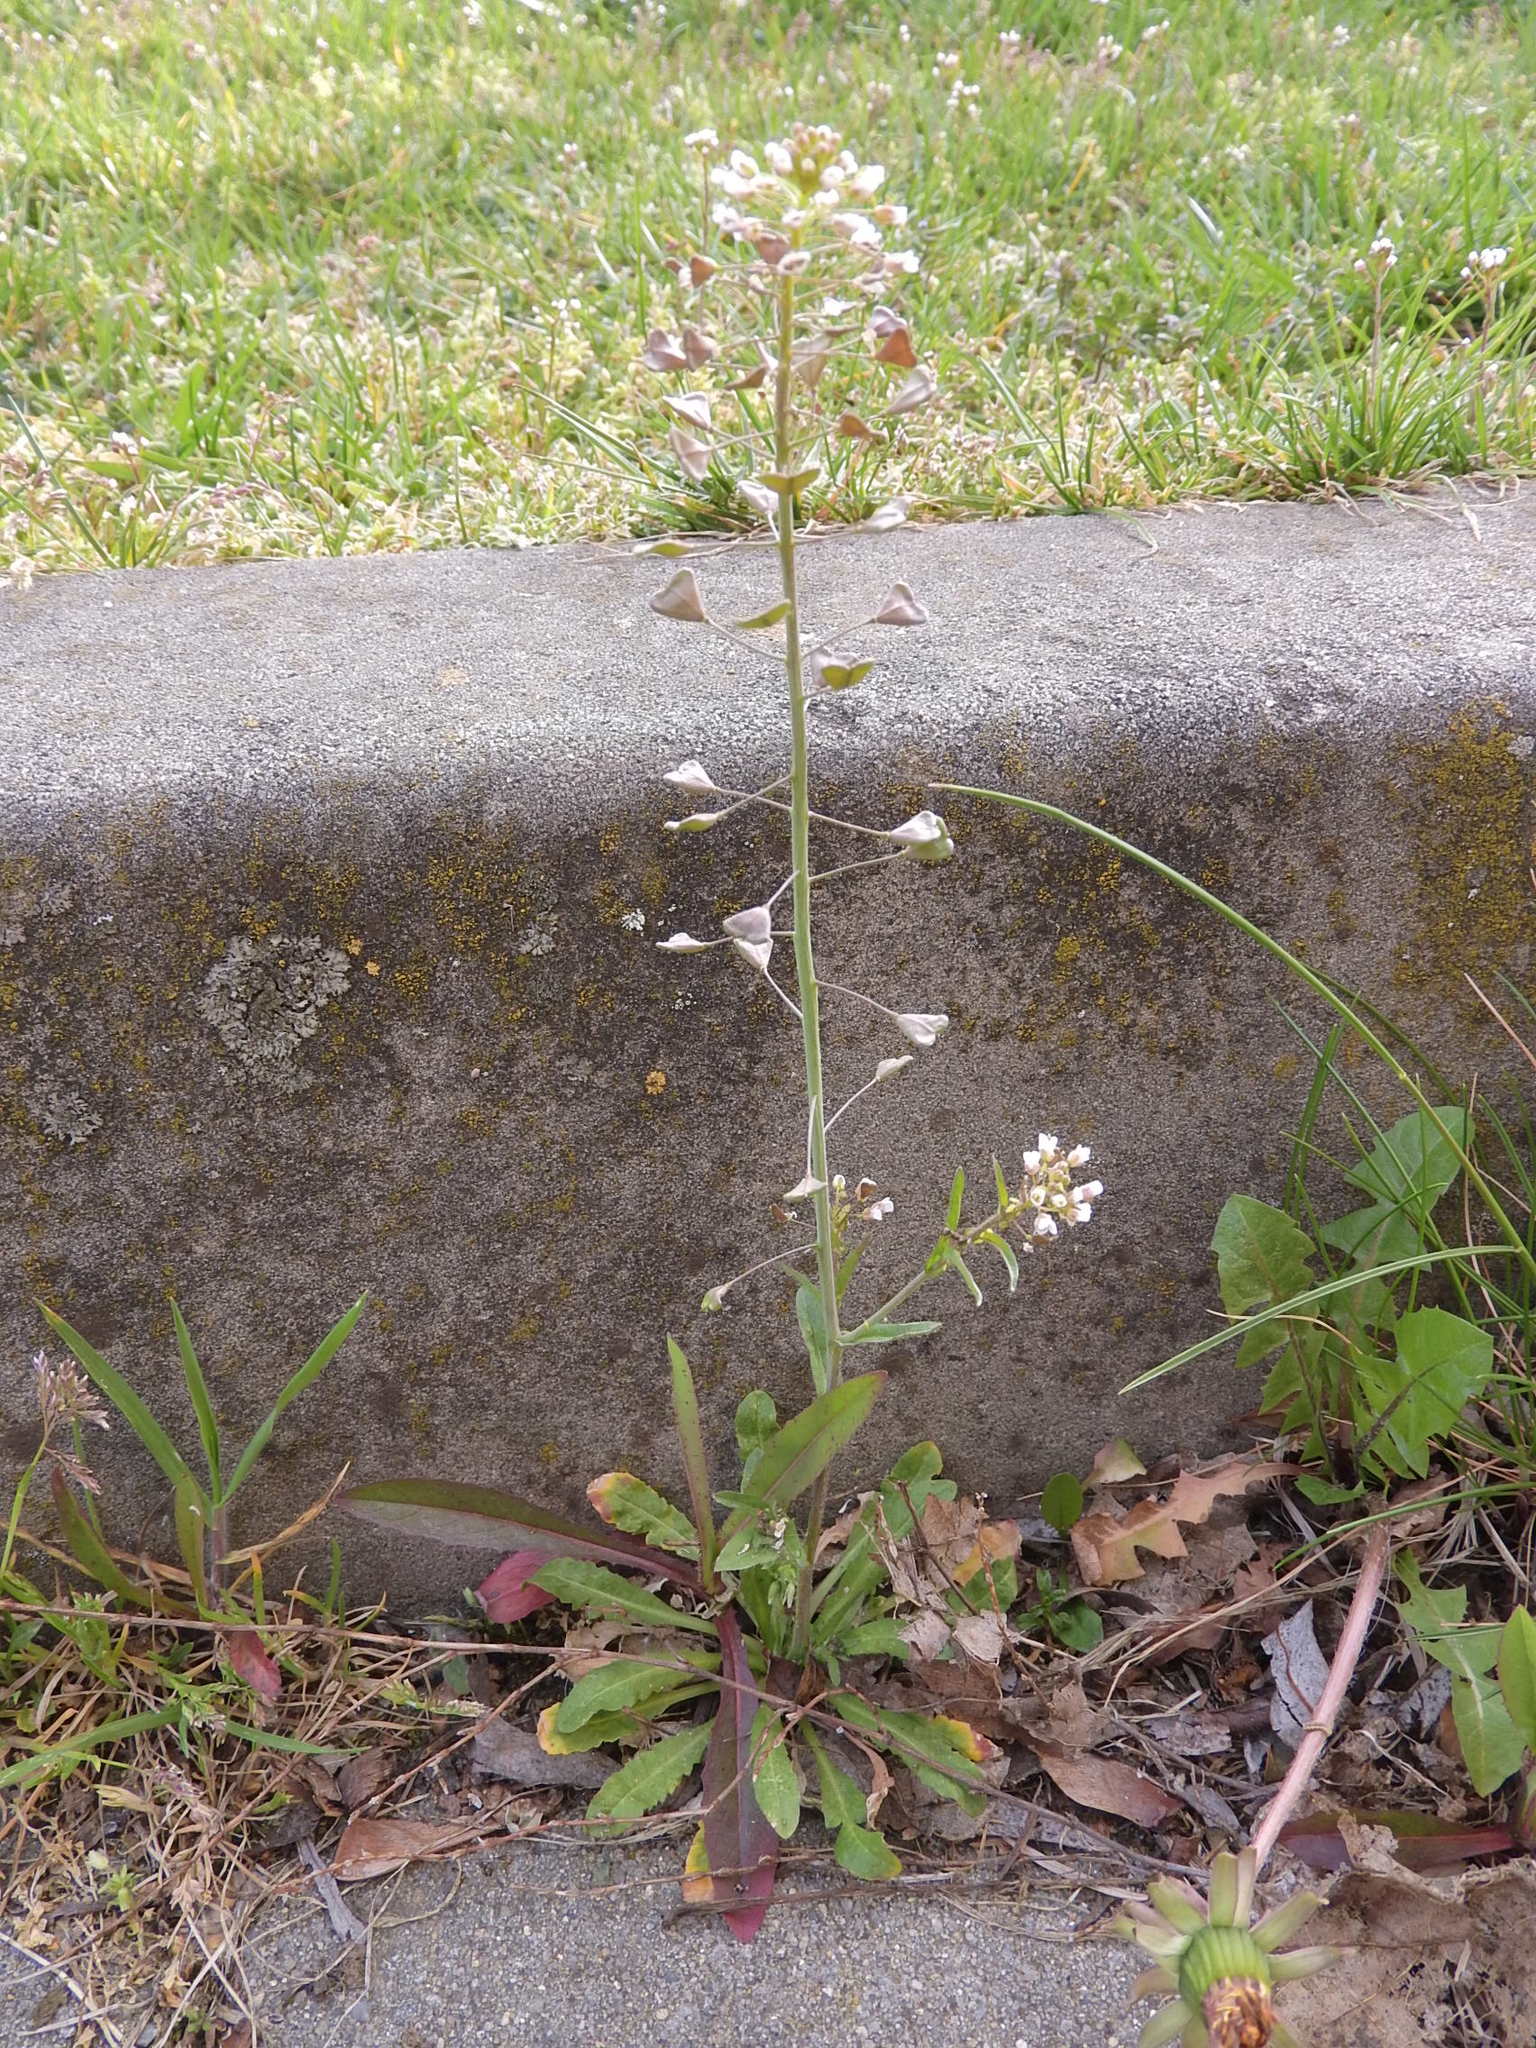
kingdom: Plantae
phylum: Tracheophyta
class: Magnoliopsida
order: Brassicales
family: Brassicaceae
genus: Capsella
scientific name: Capsella bursa-pastoris
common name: Shepherd's purse
